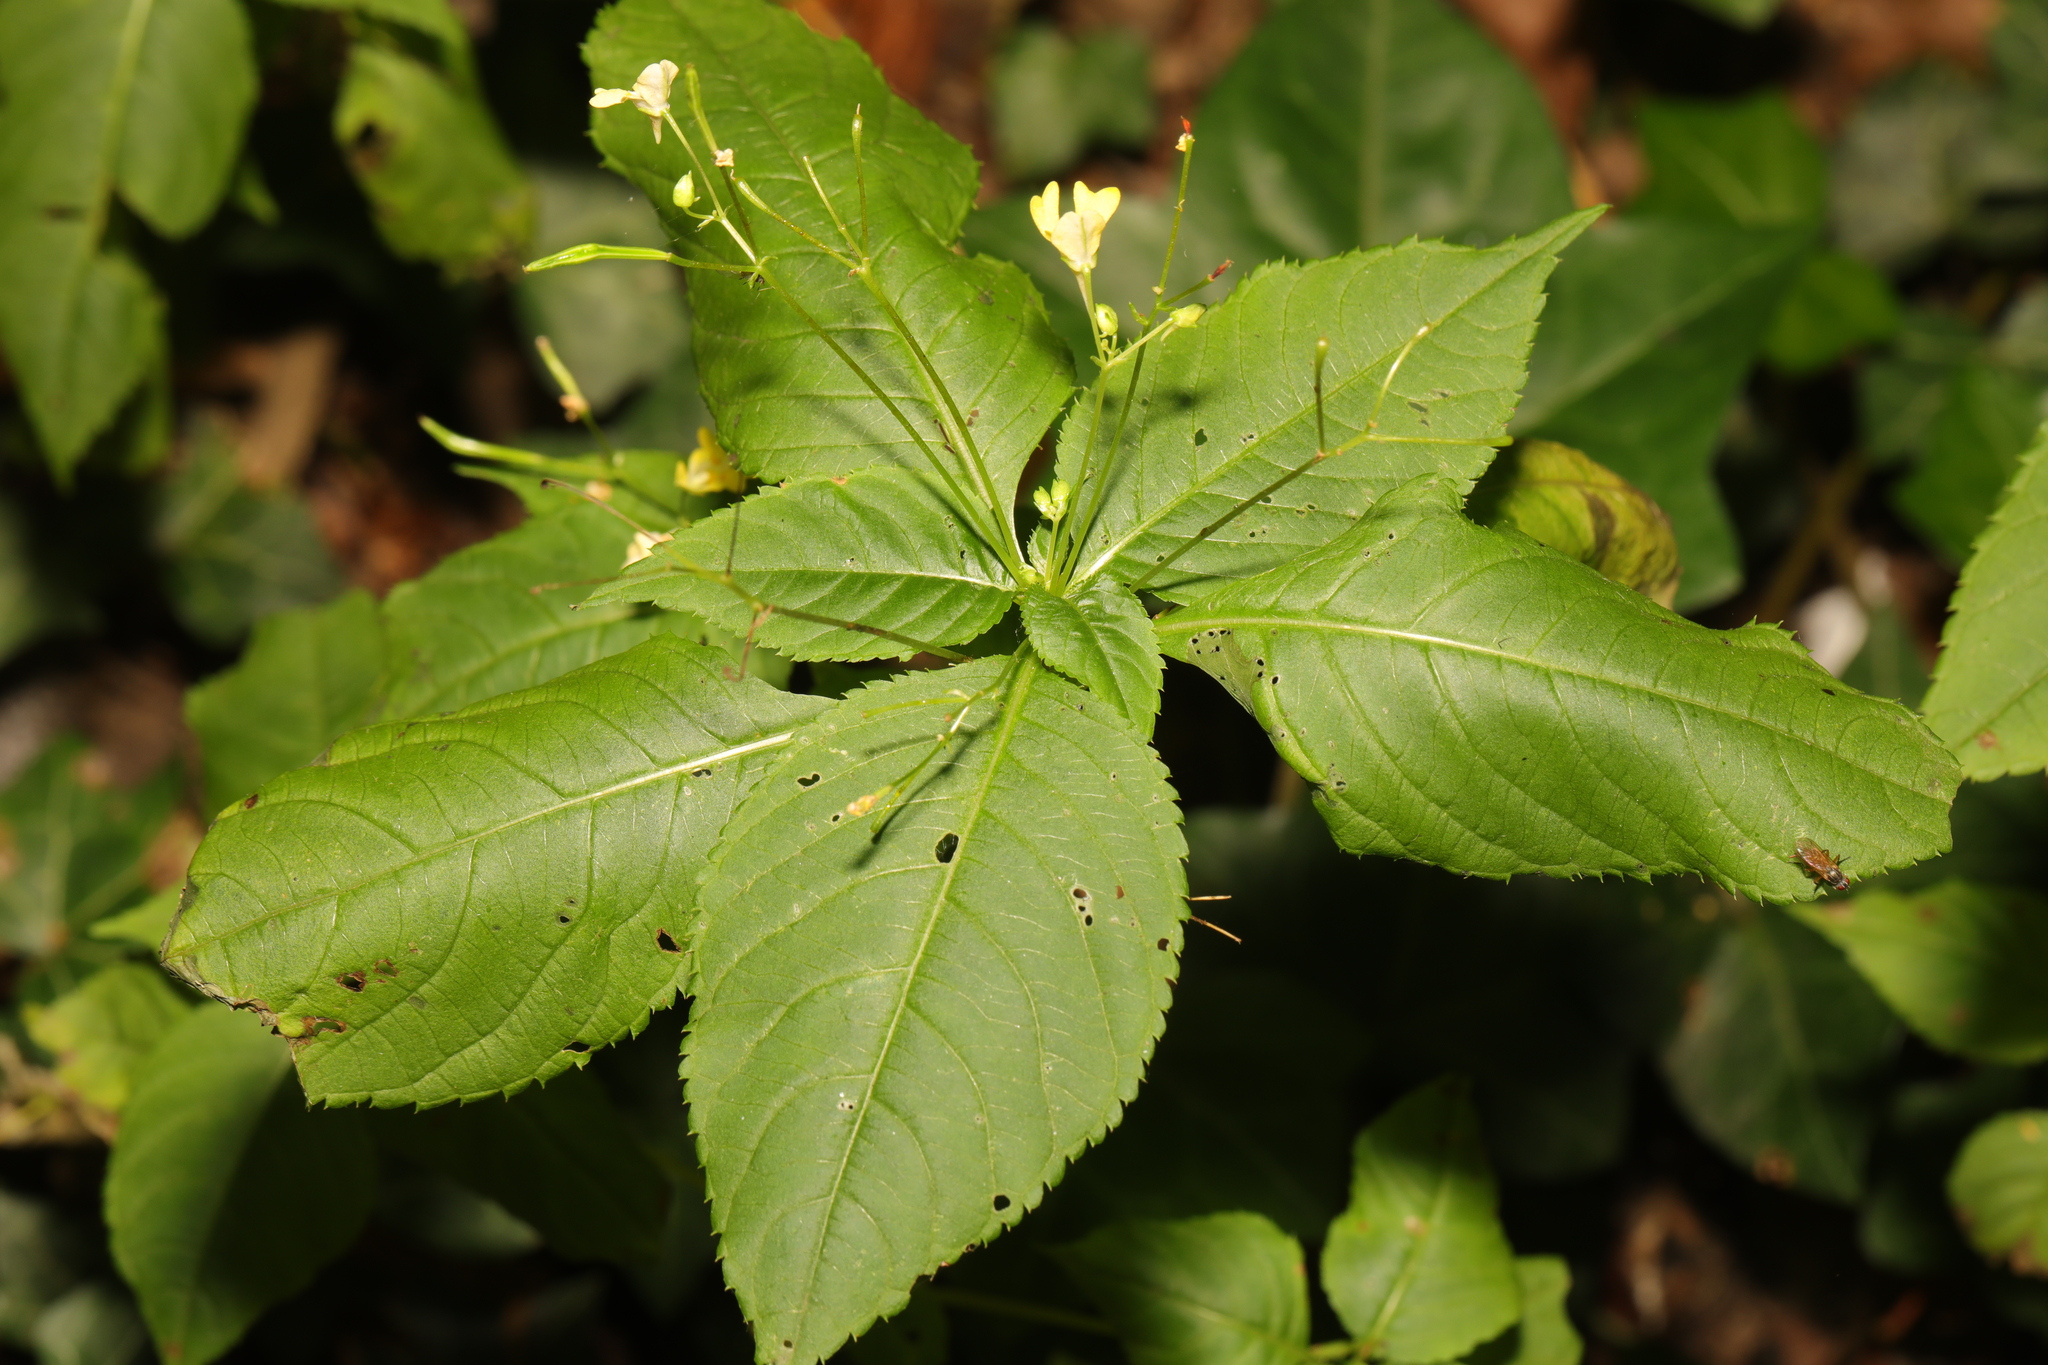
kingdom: Plantae
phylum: Tracheophyta
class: Magnoliopsida
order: Ericales
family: Balsaminaceae
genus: Impatiens
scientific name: Impatiens parviflora
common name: Small balsam
